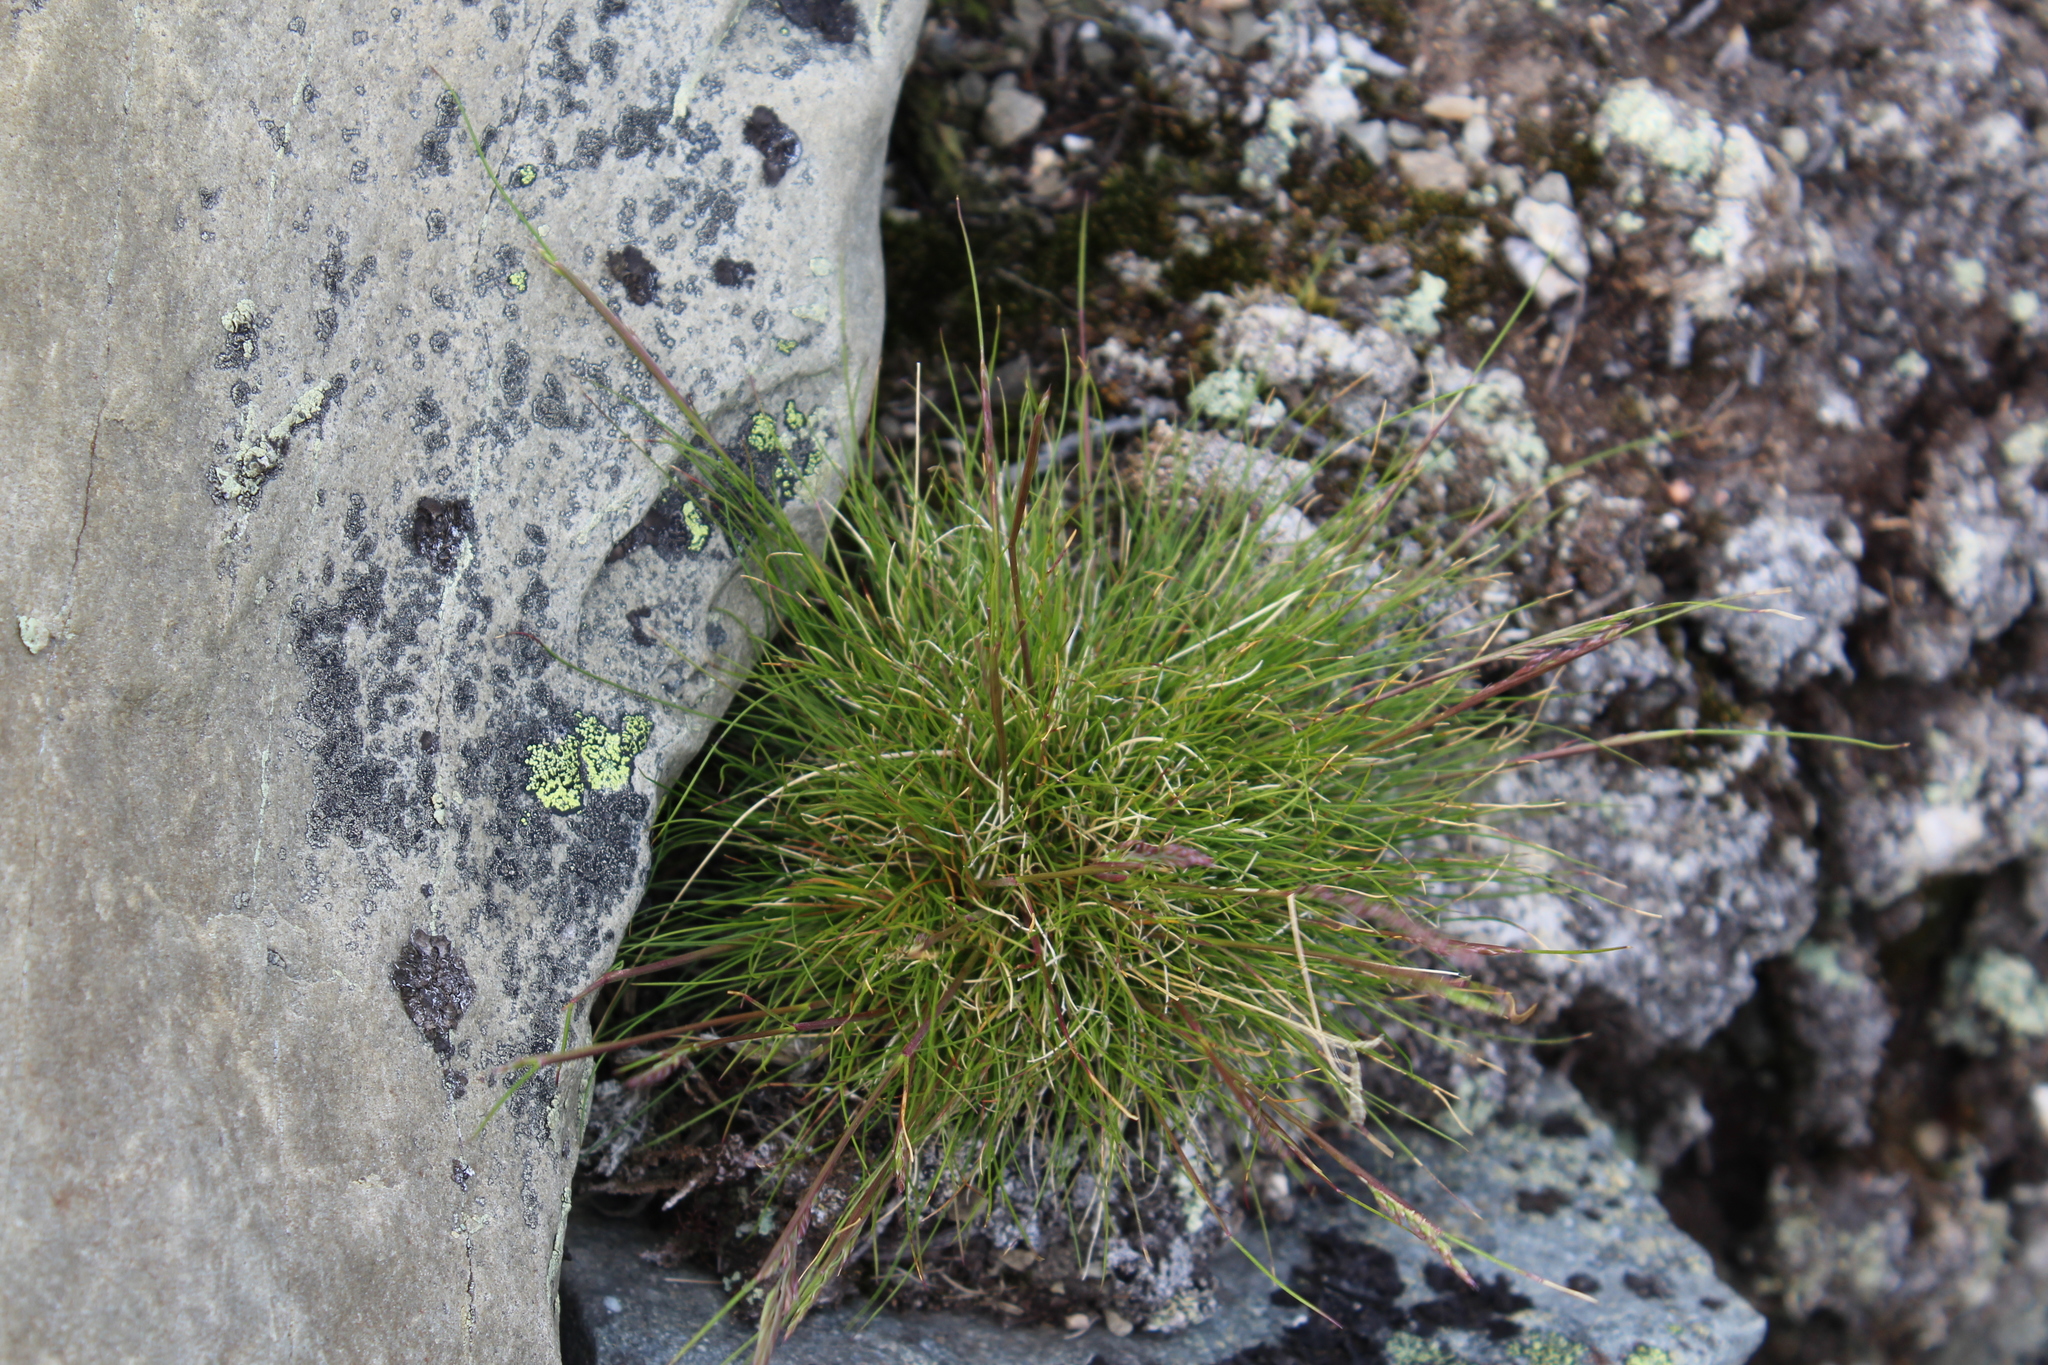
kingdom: Plantae
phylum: Tracheophyta
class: Liliopsida
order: Poales
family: Poaceae
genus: Avenella
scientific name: Avenella flexuosa
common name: Wavy hairgrass
